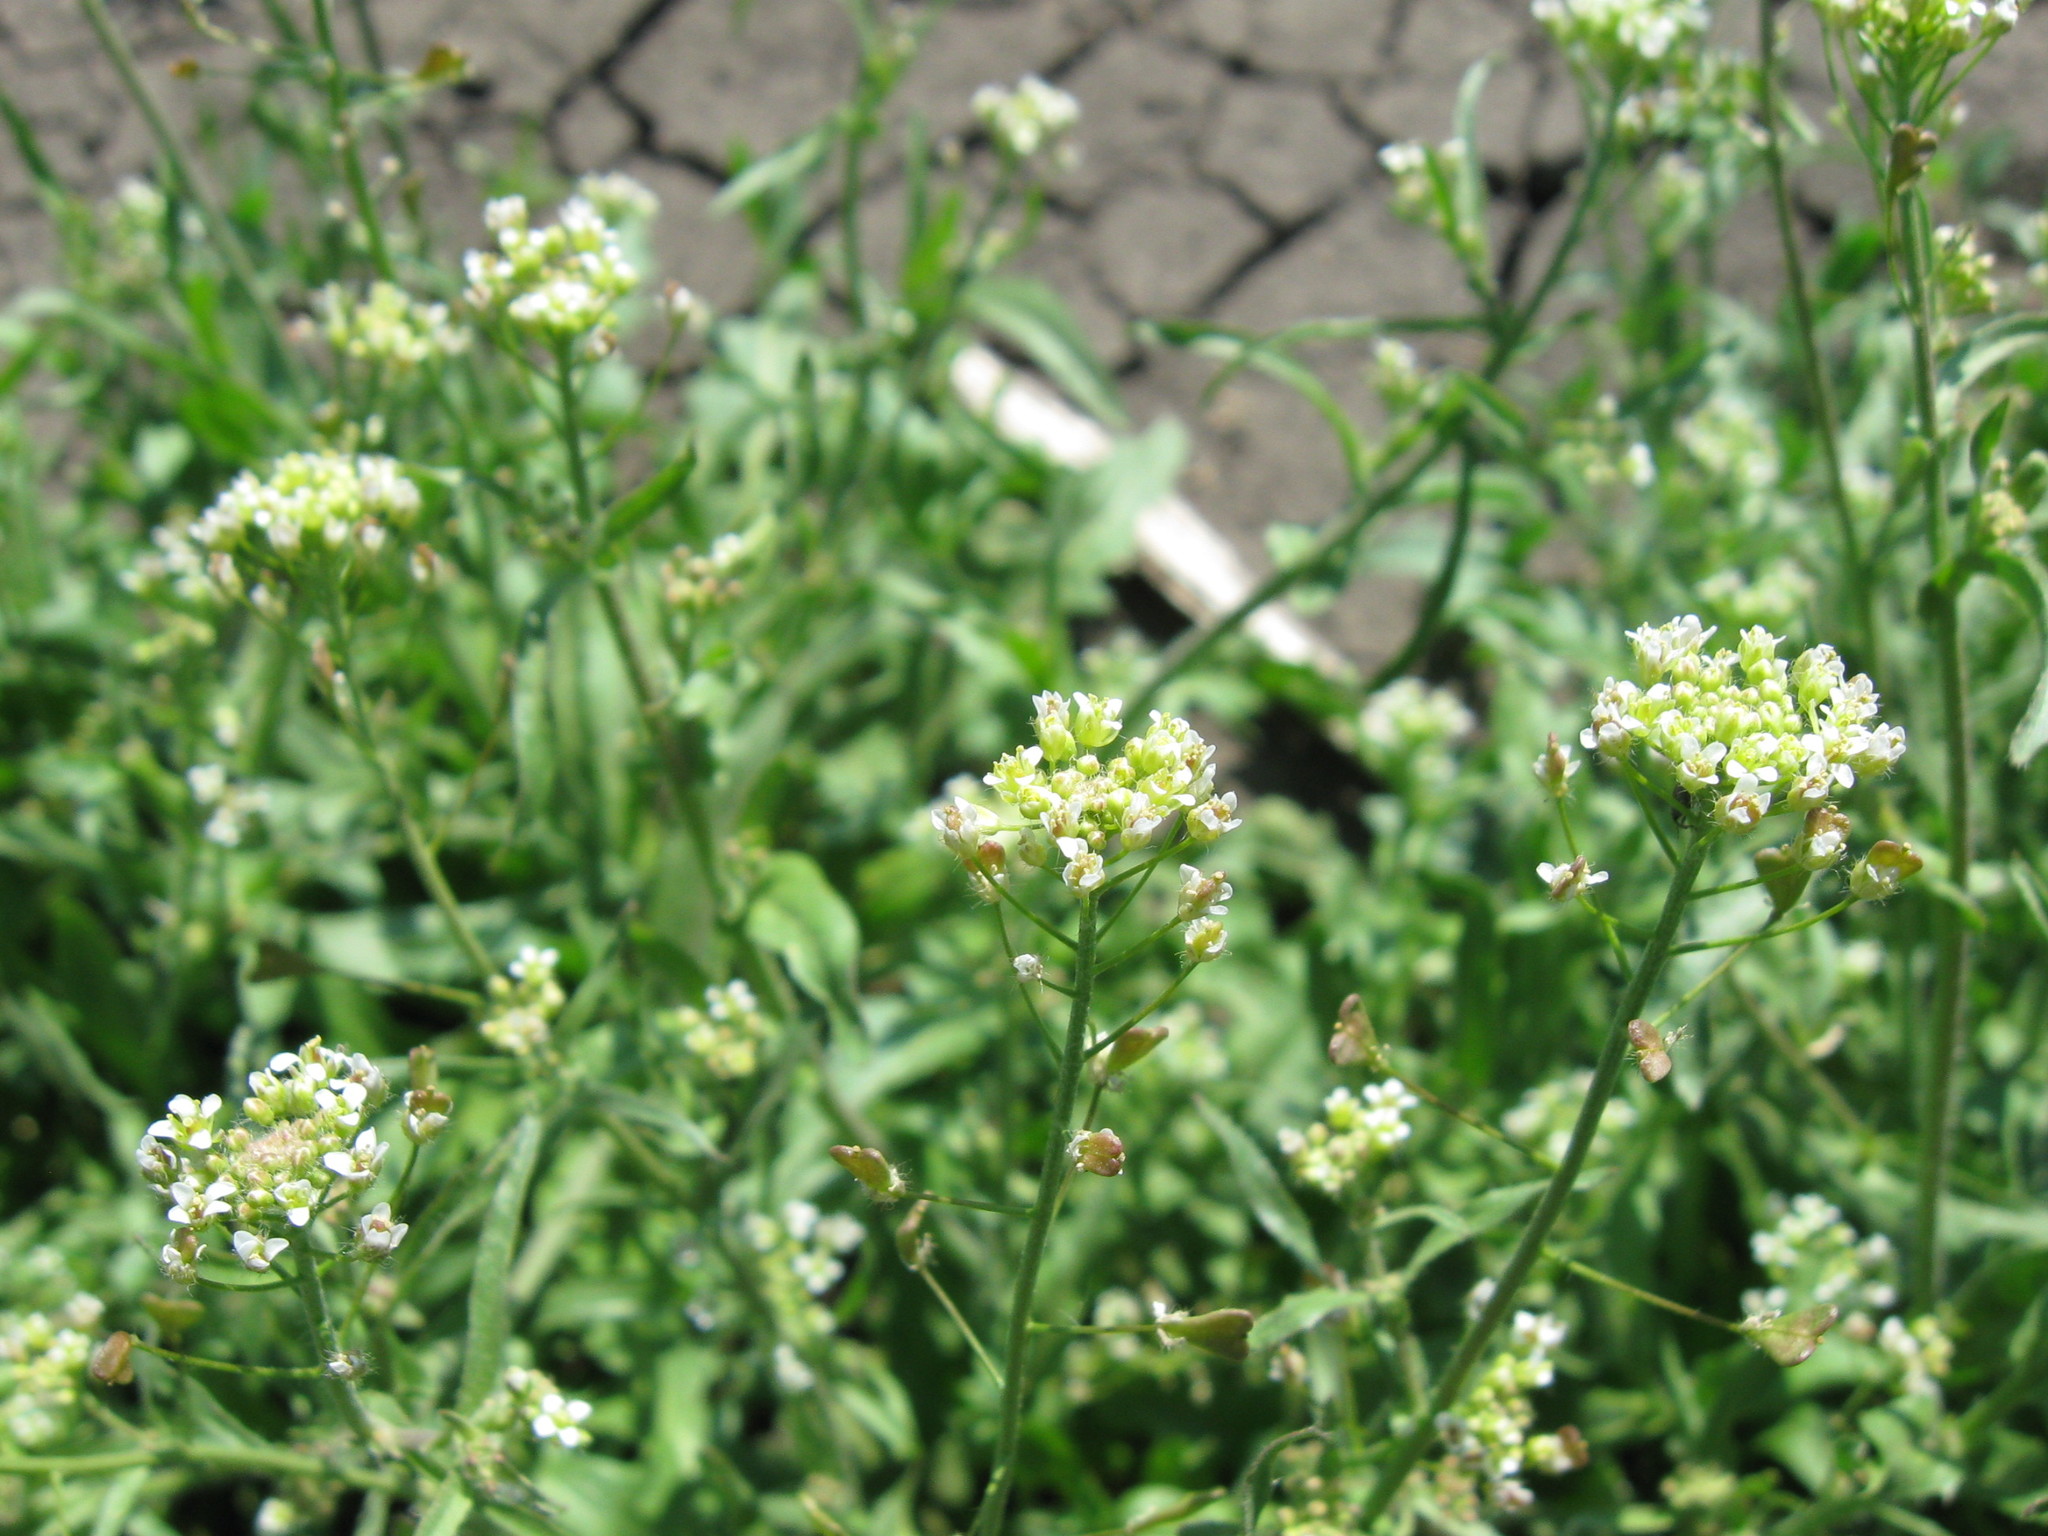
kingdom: Plantae
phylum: Tracheophyta
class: Magnoliopsida
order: Brassicales
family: Brassicaceae
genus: Capsella
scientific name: Capsella bursa-pastoris
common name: Shepherd's purse
